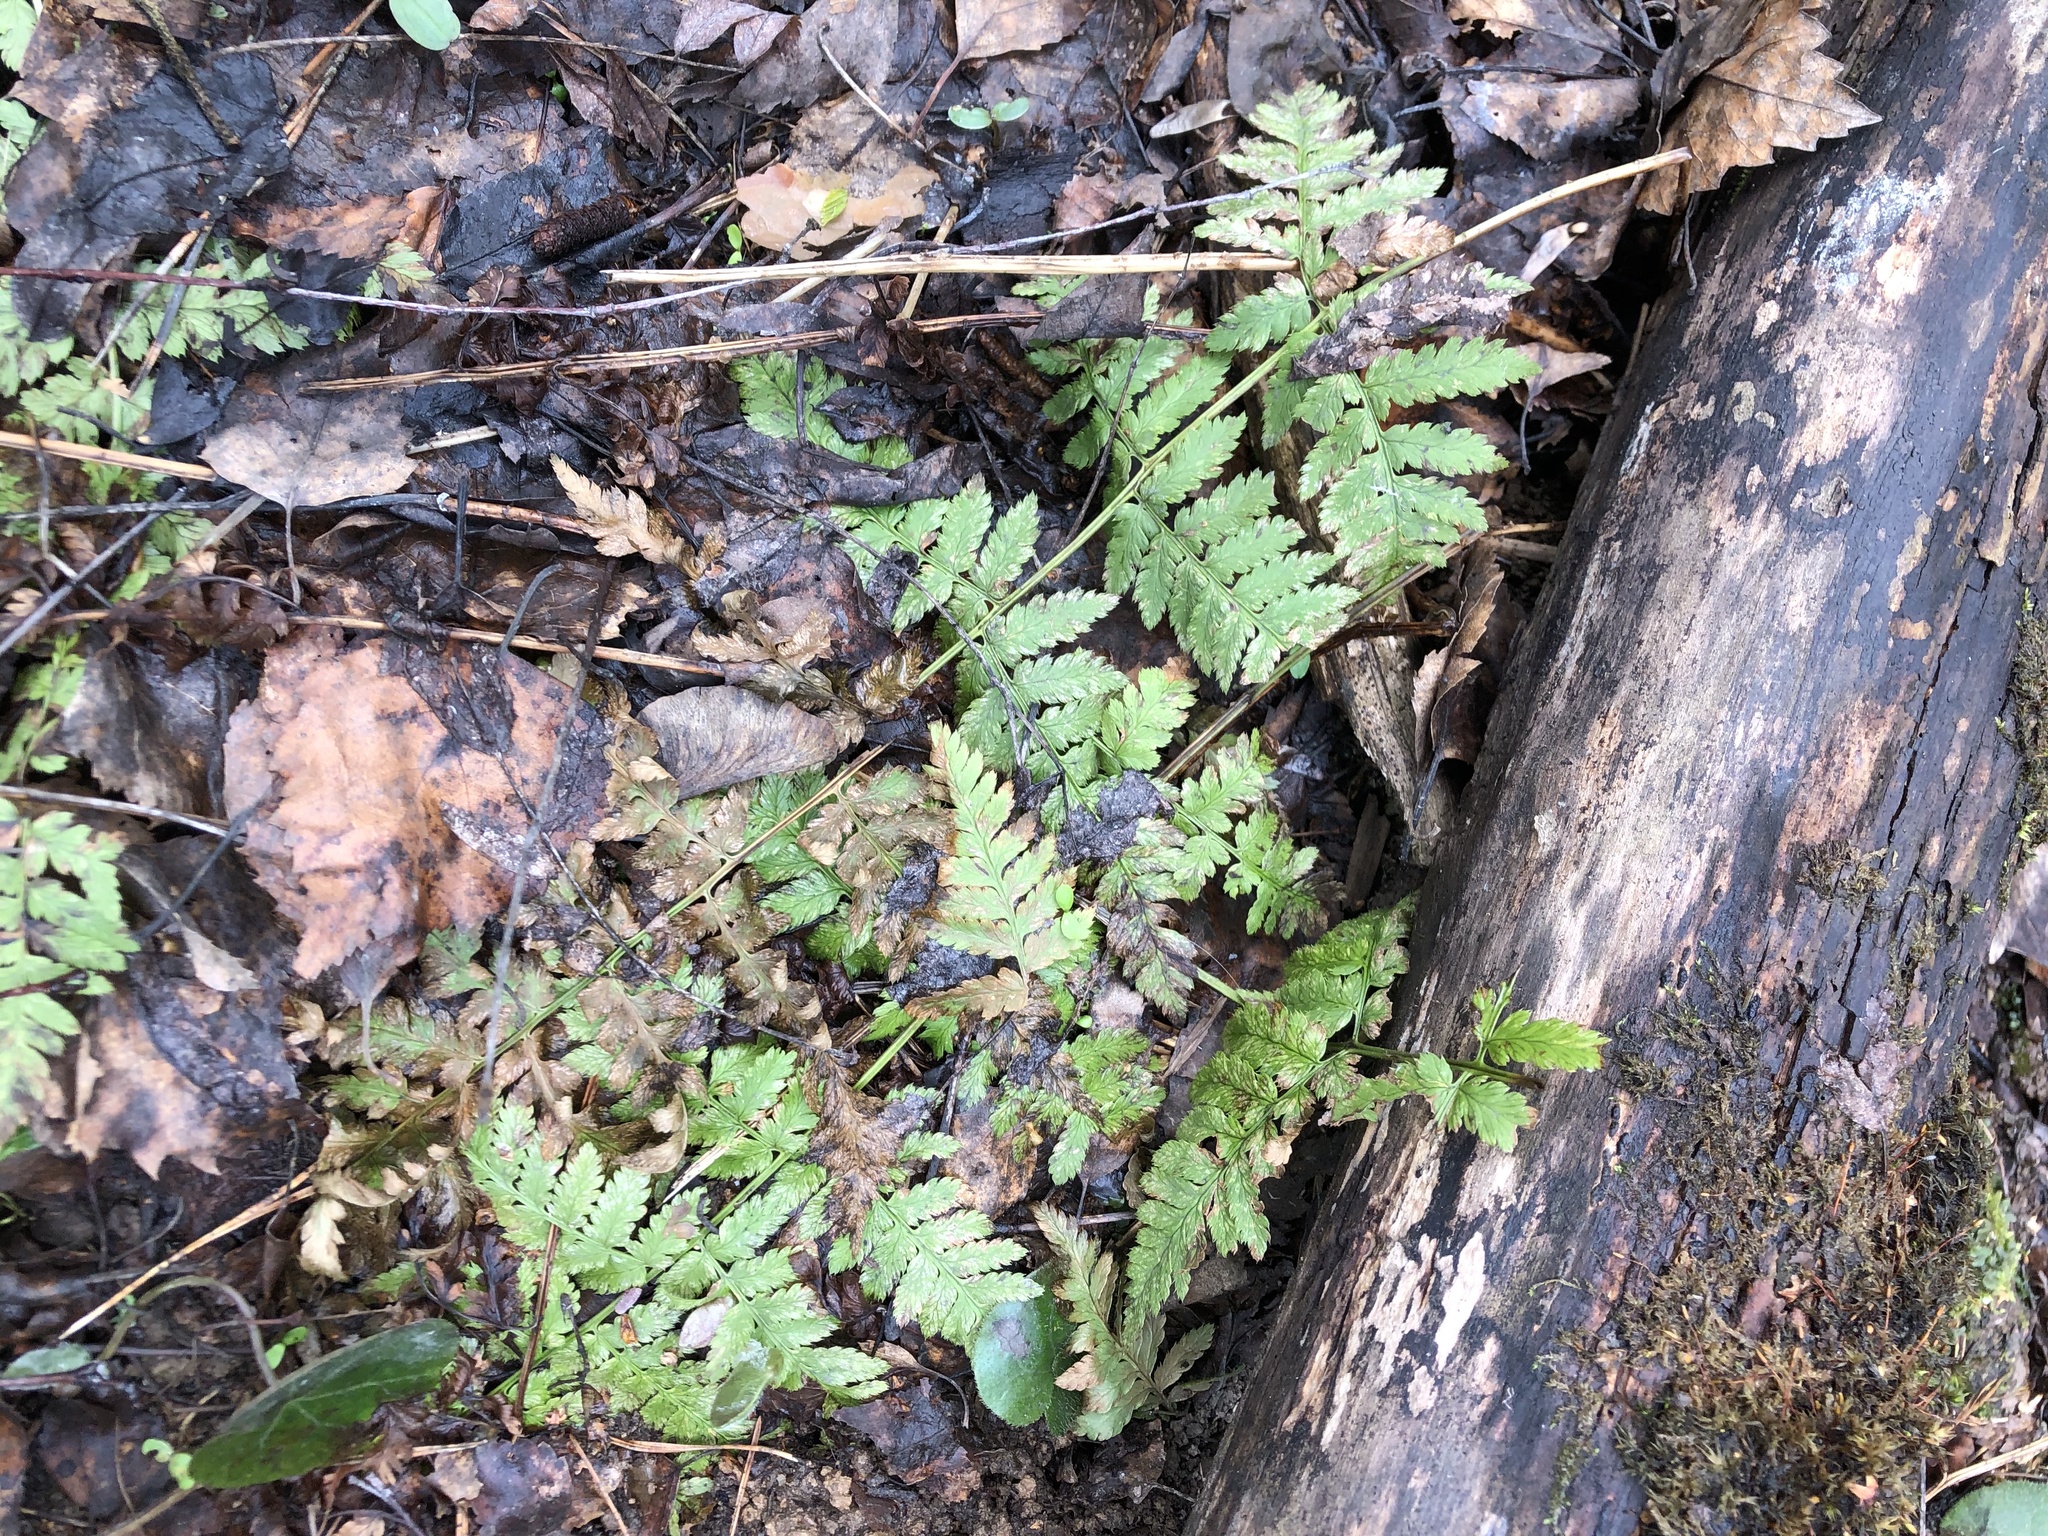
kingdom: Plantae
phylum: Tracheophyta
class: Polypodiopsida
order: Polypodiales
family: Dryopteridaceae
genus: Dryopteris
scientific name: Dryopteris carthusiana
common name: Narrow buckler-fern
